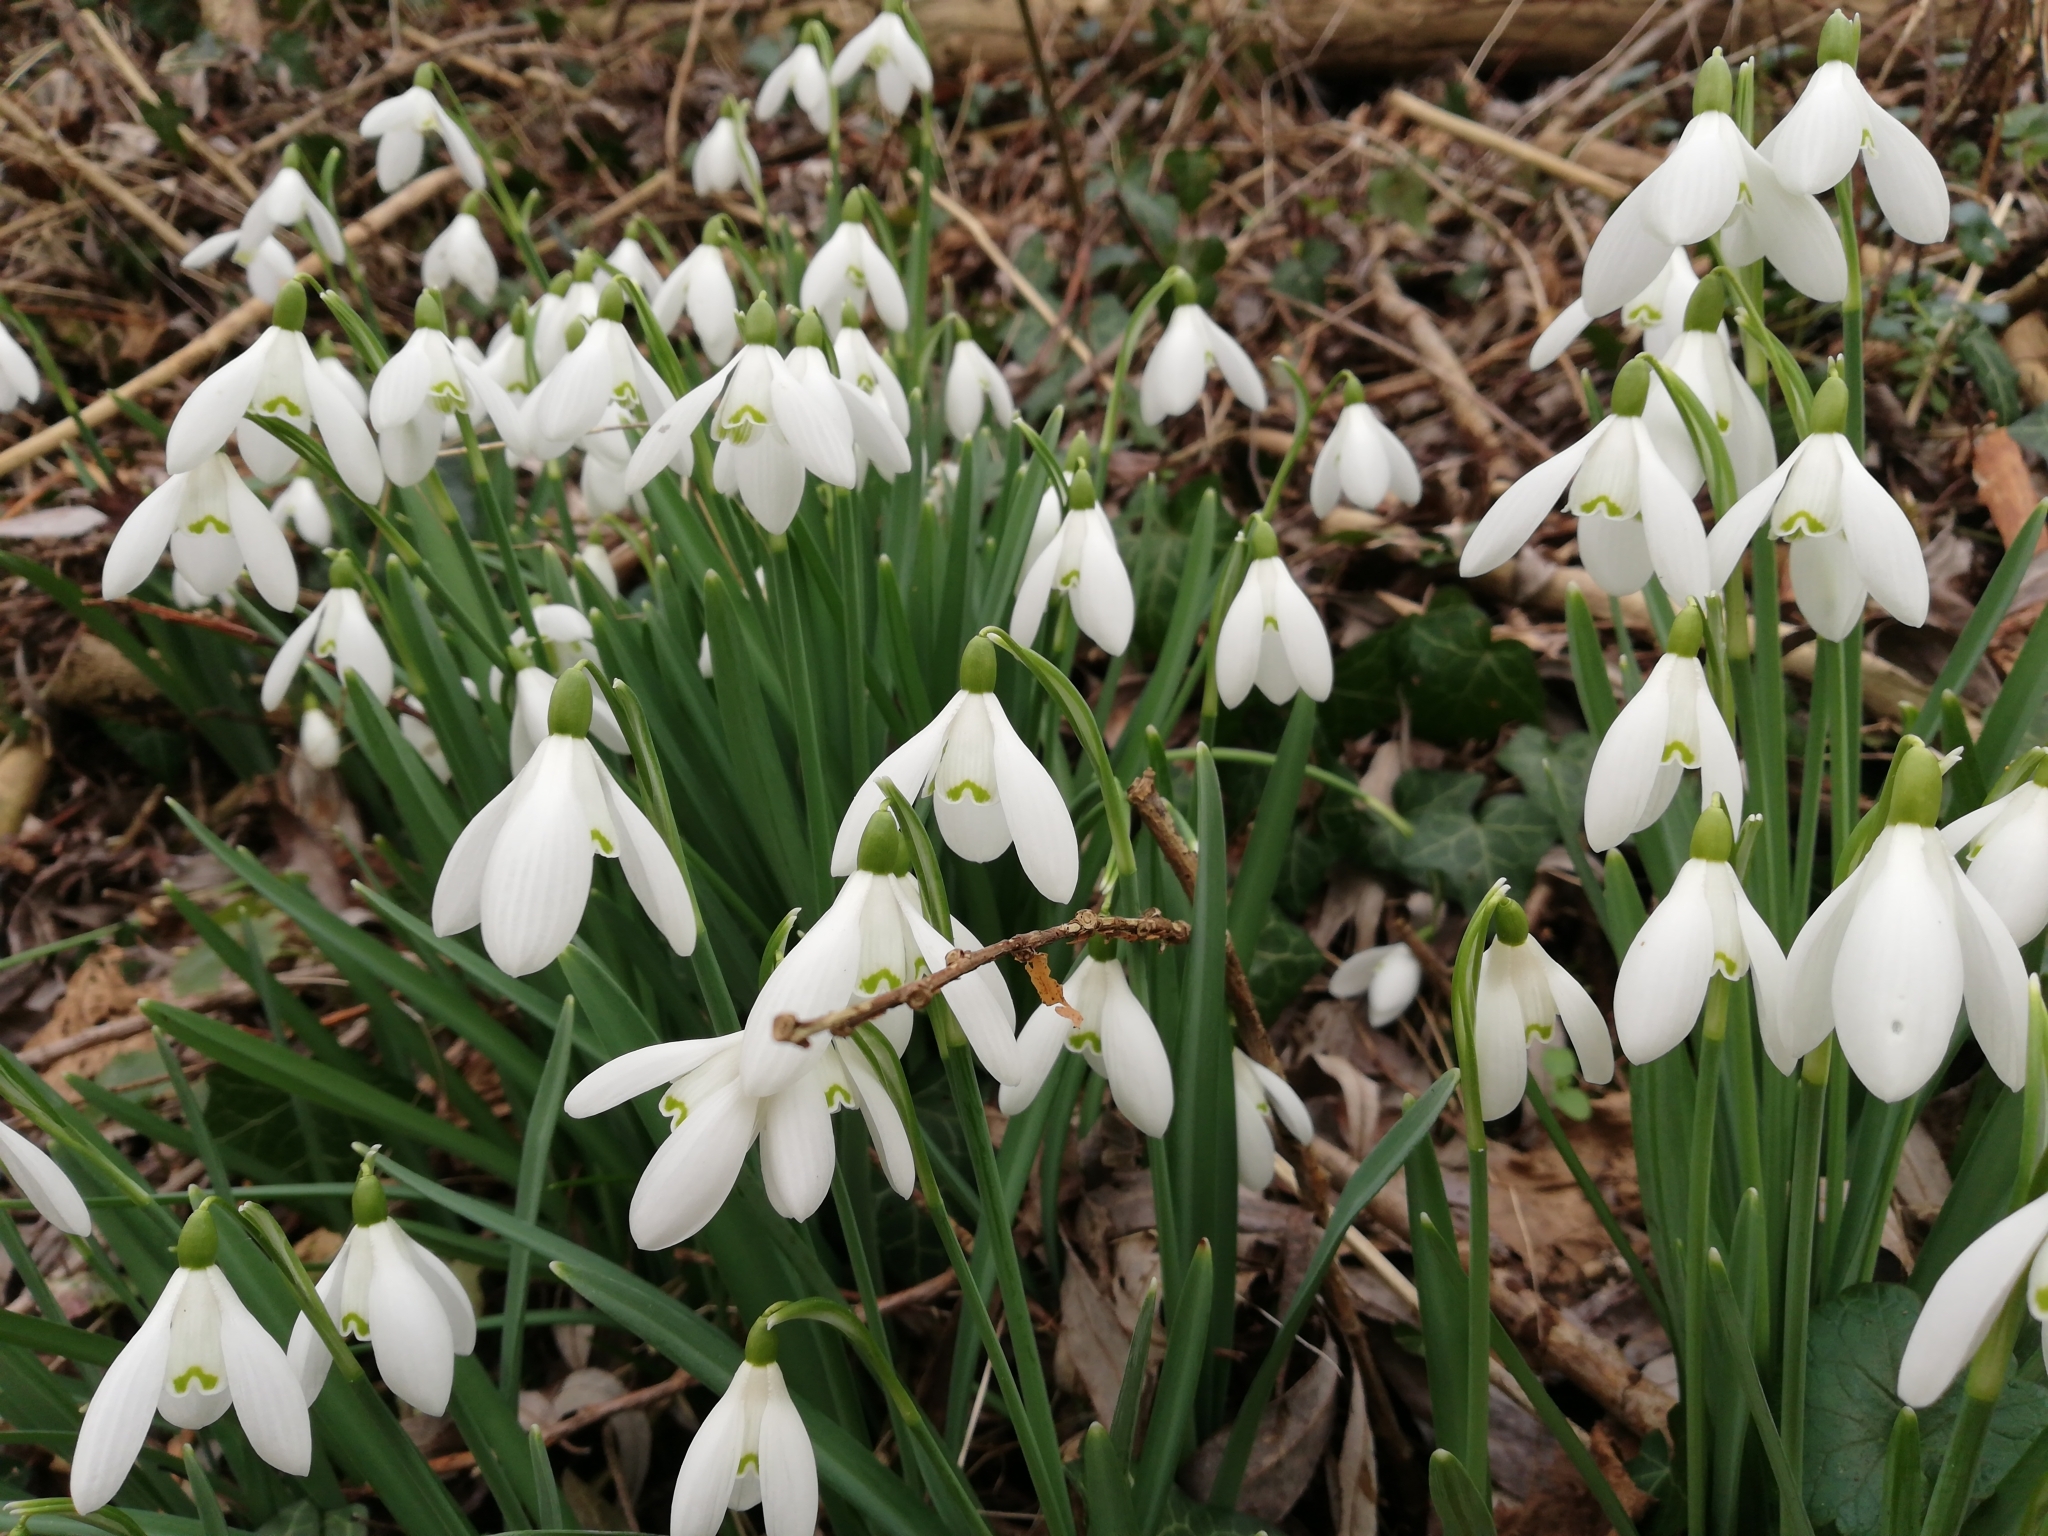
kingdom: Plantae
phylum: Tracheophyta
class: Liliopsida
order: Asparagales
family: Amaryllidaceae
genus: Galanthus
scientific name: Galanthus nivalis
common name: Snowdrop
